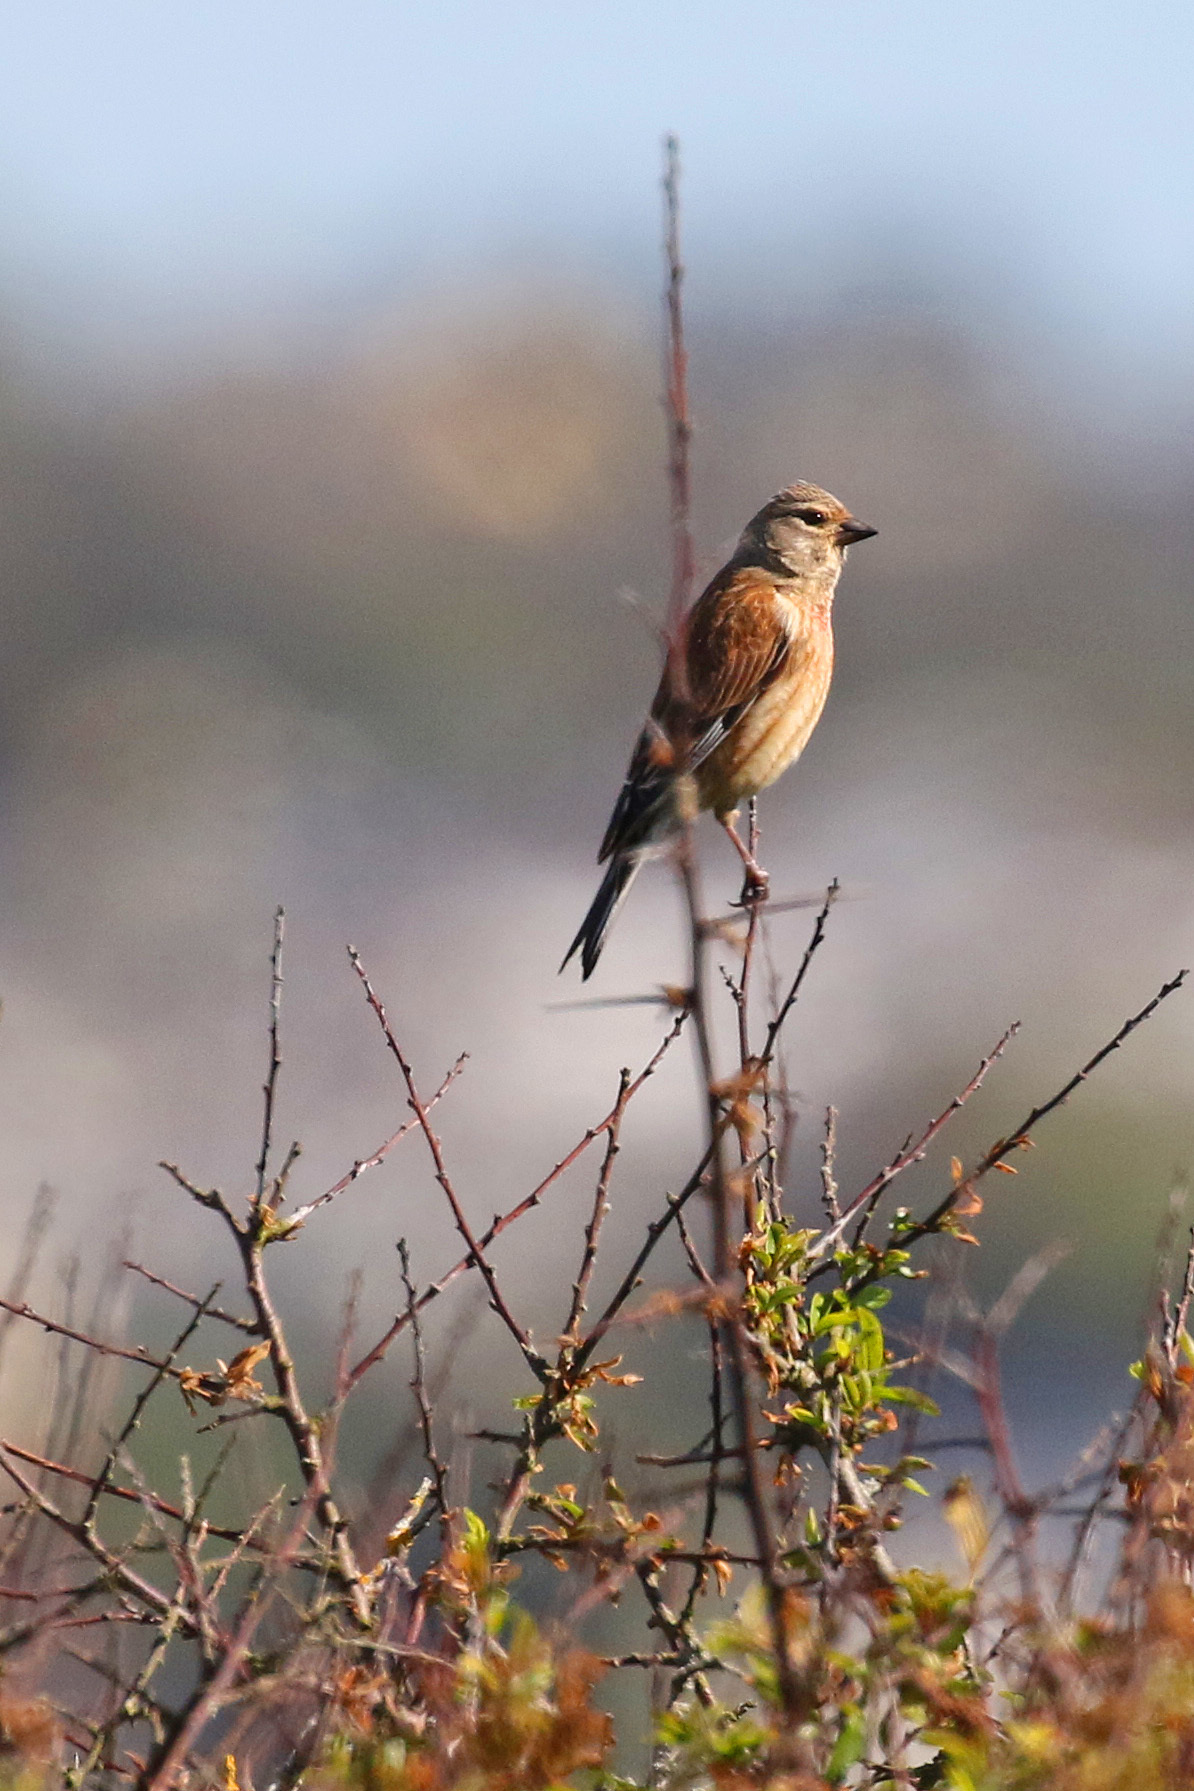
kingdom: Animalia
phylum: Chordata
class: Aves
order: Passeriformes
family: Fringillidae
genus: Linaria
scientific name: Linaria cannabina
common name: Common linnet
